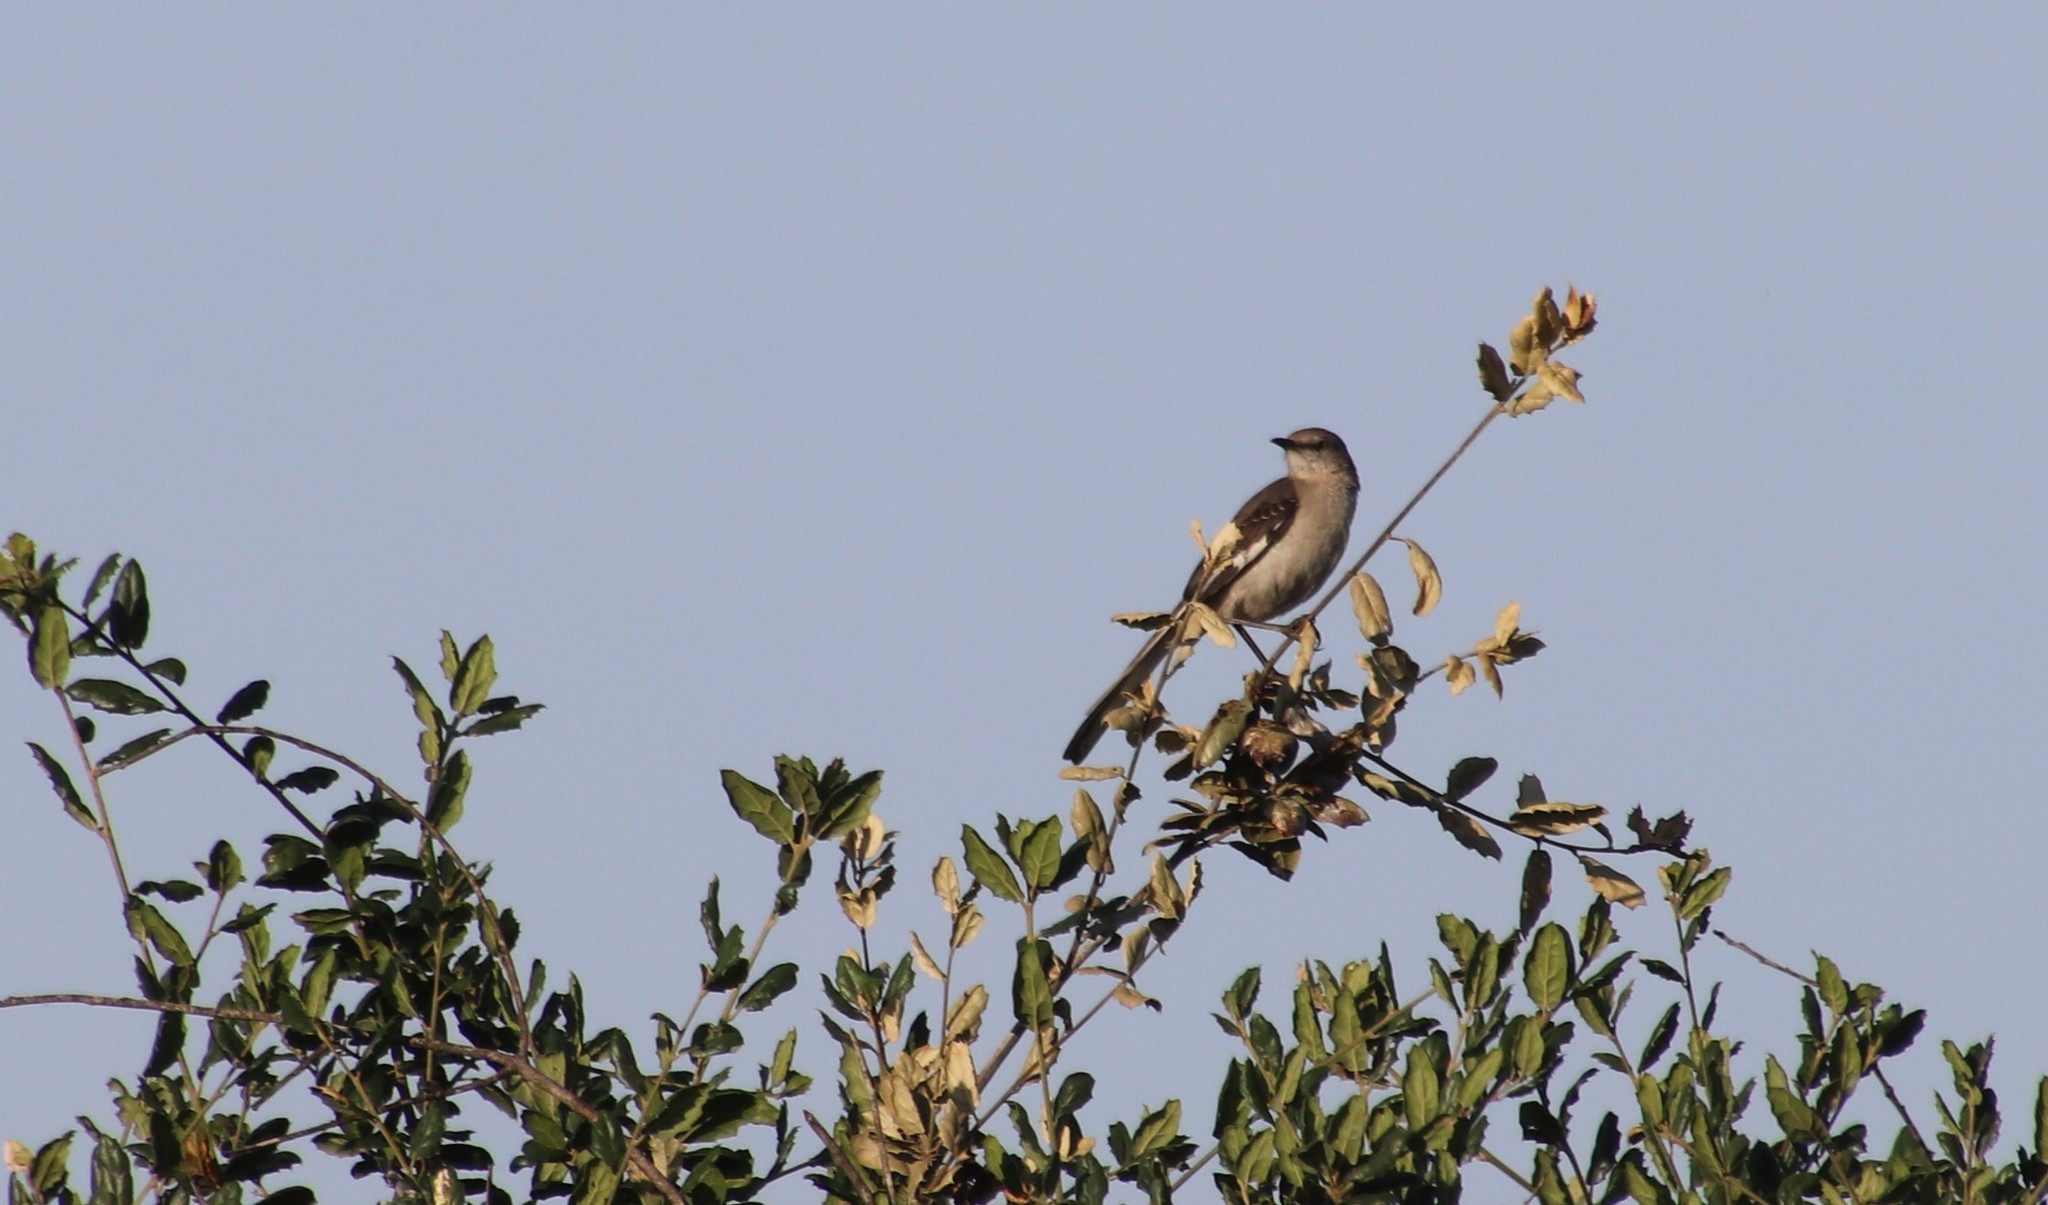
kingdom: Animalia
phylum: Chordata
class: Aves
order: Passeriformes
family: Mimidae
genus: Mimus
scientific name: Mimus polyglottos
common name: Northern mockingbird
